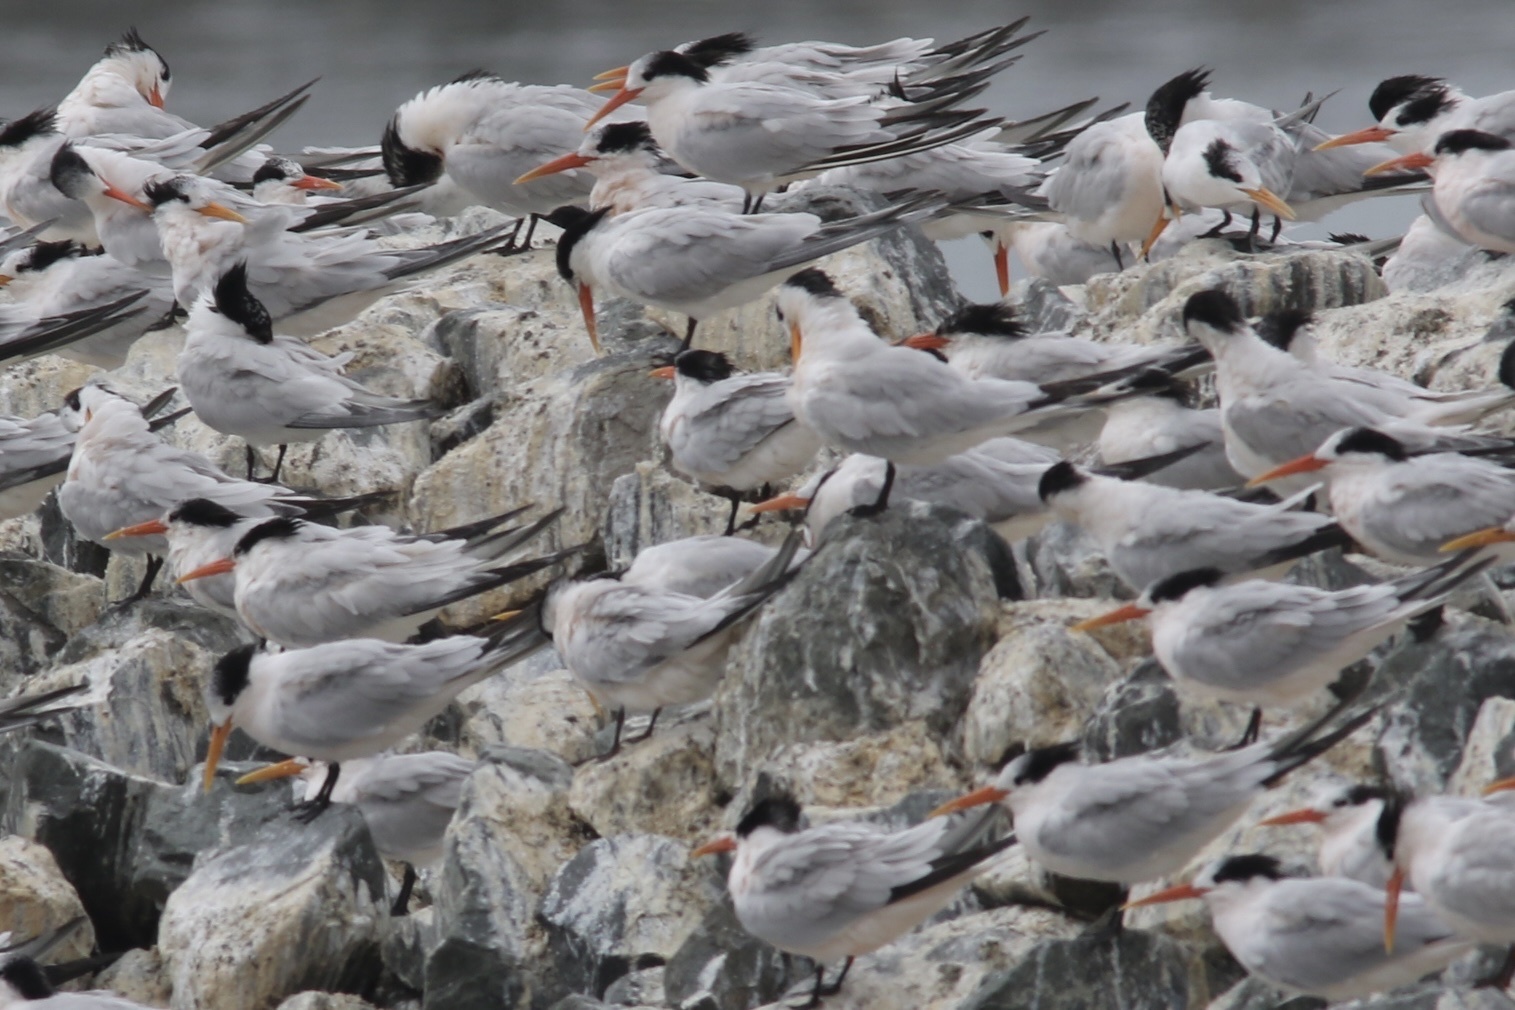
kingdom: Animalia
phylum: Chordata
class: Aves
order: Charadriiformes
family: Laridae
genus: Thalasseus
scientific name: Thalasseus elegans
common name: Elegant tern
